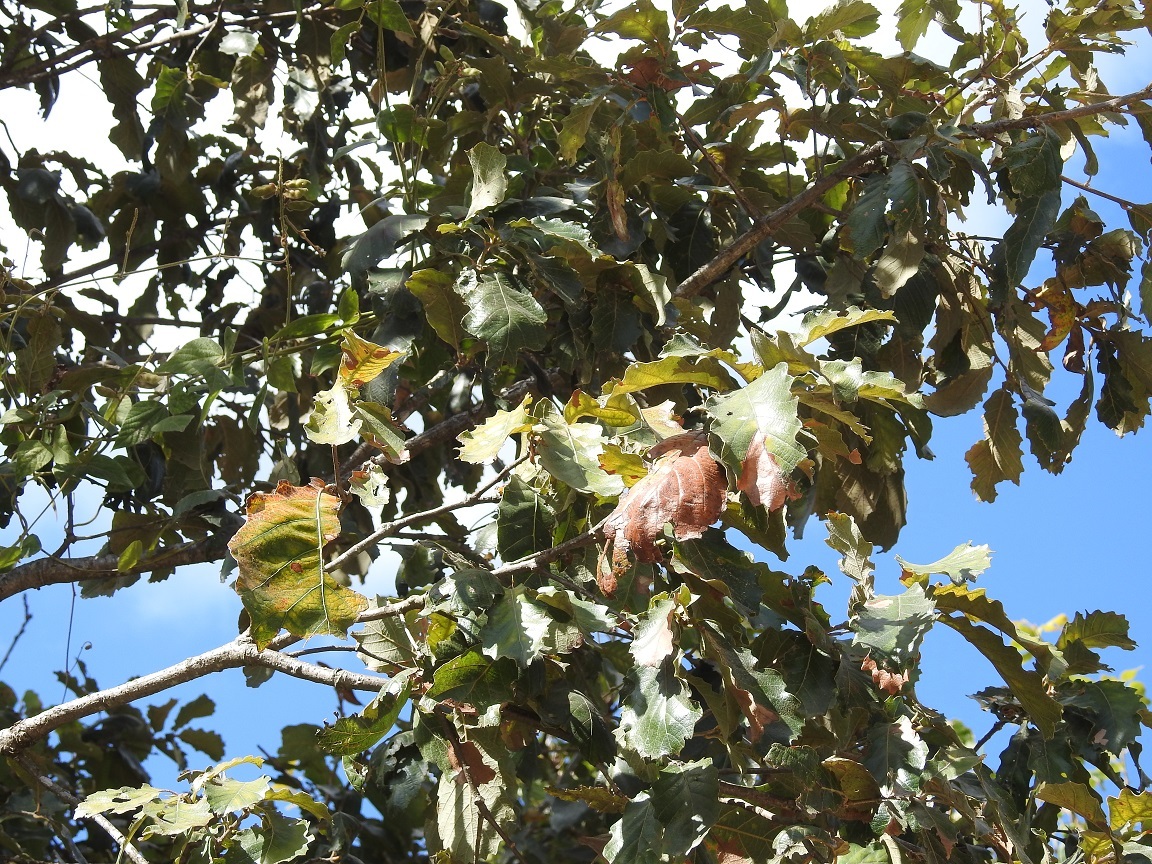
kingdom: Plantae
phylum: Tracheophyta
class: Magnoliopsida
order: Fagales
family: Fagaceae
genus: Quercus
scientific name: Quercus purulhana
